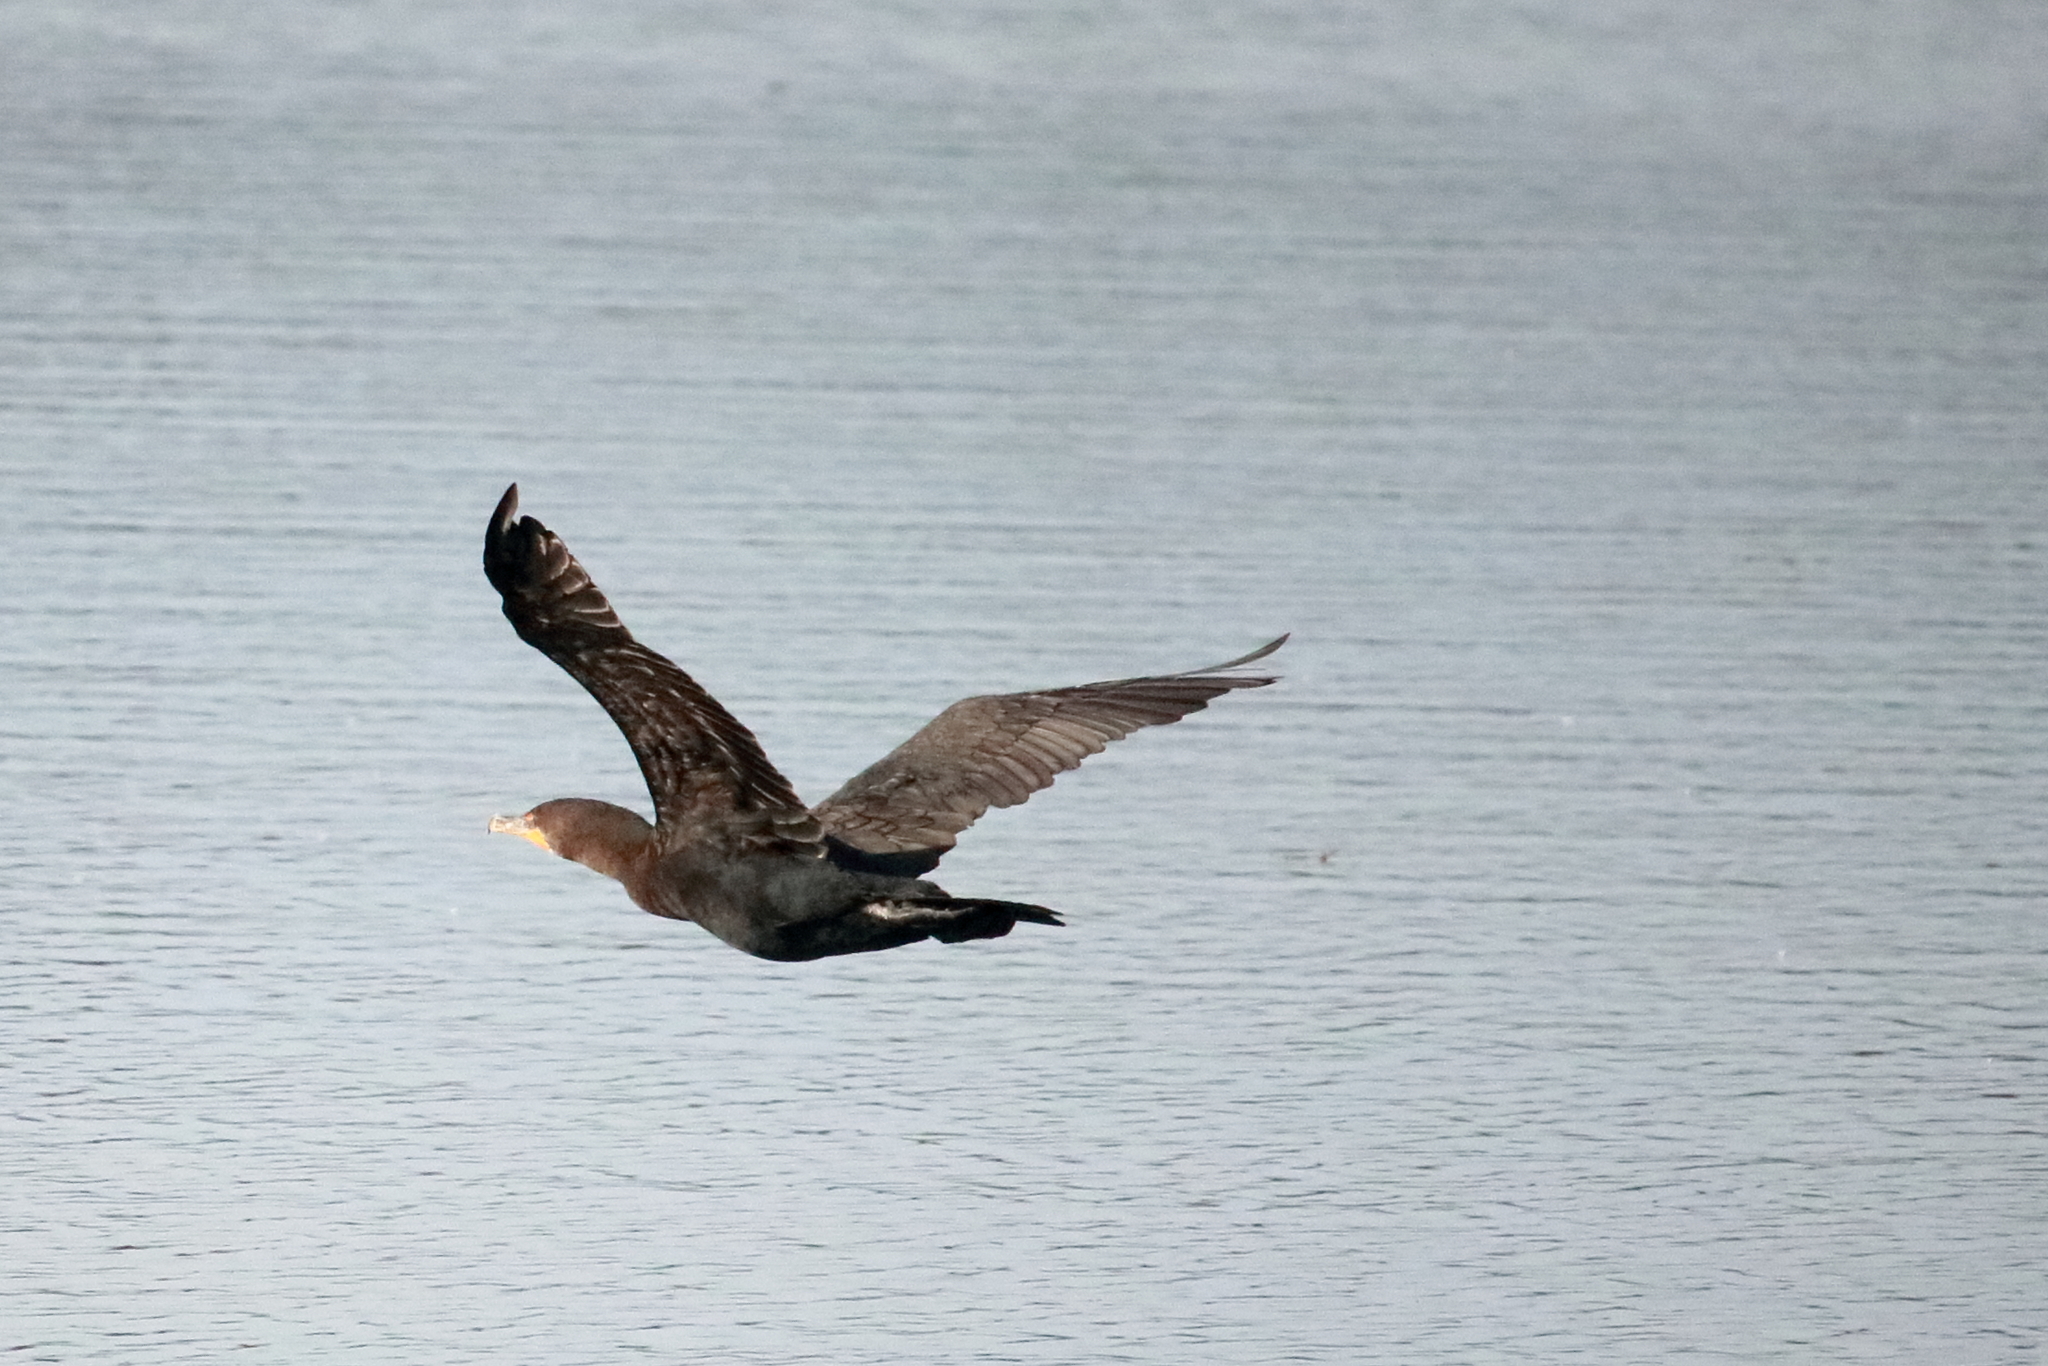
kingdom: Animalia
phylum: Chordata
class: Aves
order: Suliformes
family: Phalacrocoracidae
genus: Phalacrocorax
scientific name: Phalacrocorax auritus
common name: Double-crested cormorant
